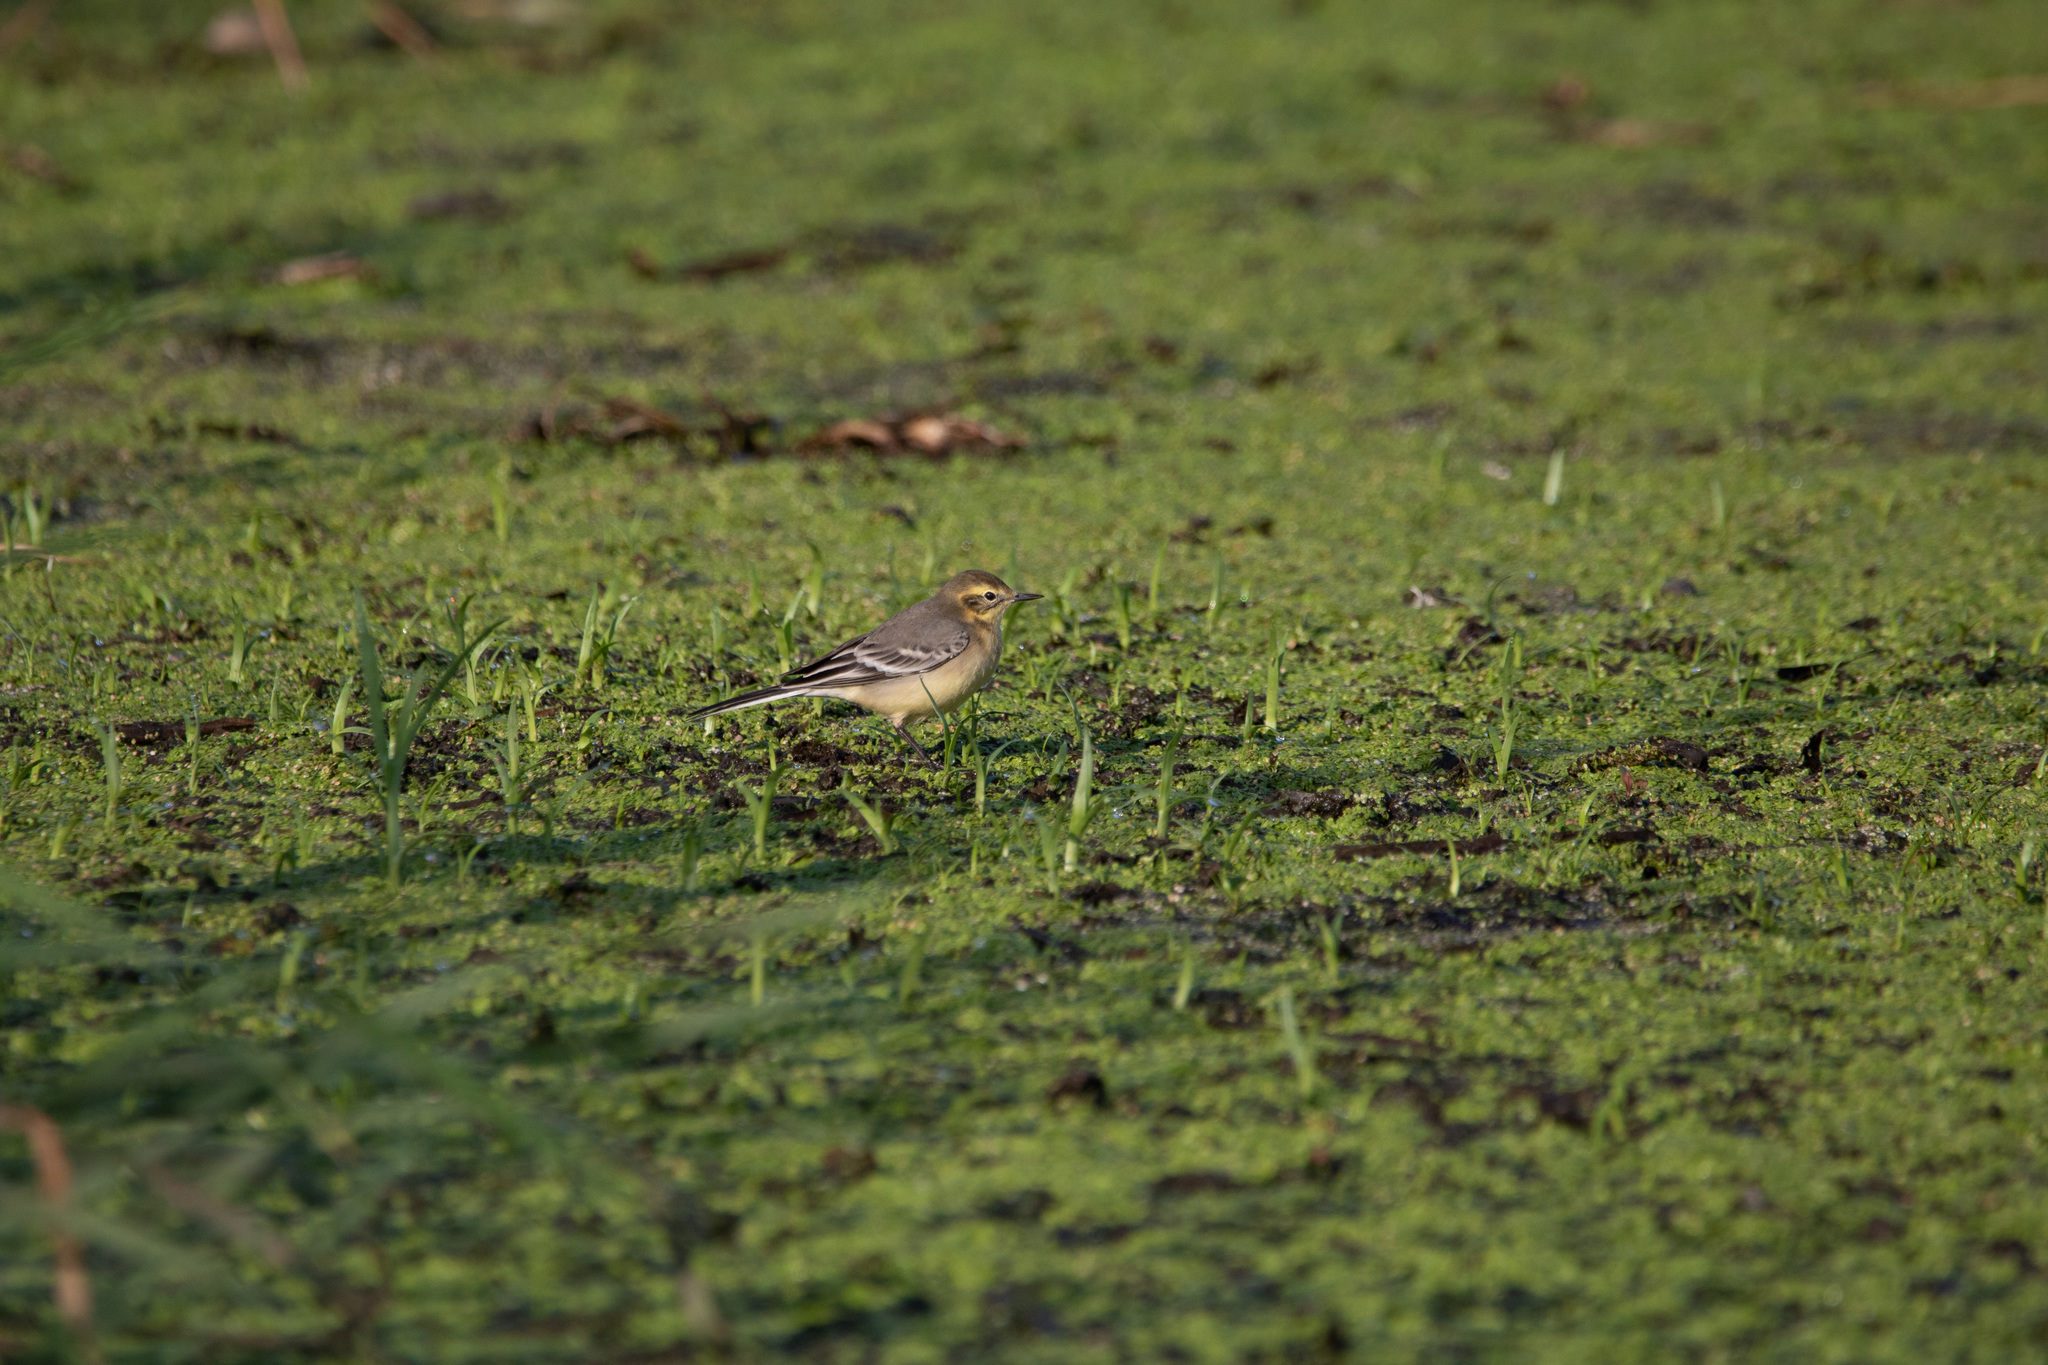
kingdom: Animalia
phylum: Chordata
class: Aves
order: Passeriformes
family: Motacillidae
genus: Motacilla
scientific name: Motacilla citreola
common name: Citrine wagtail
